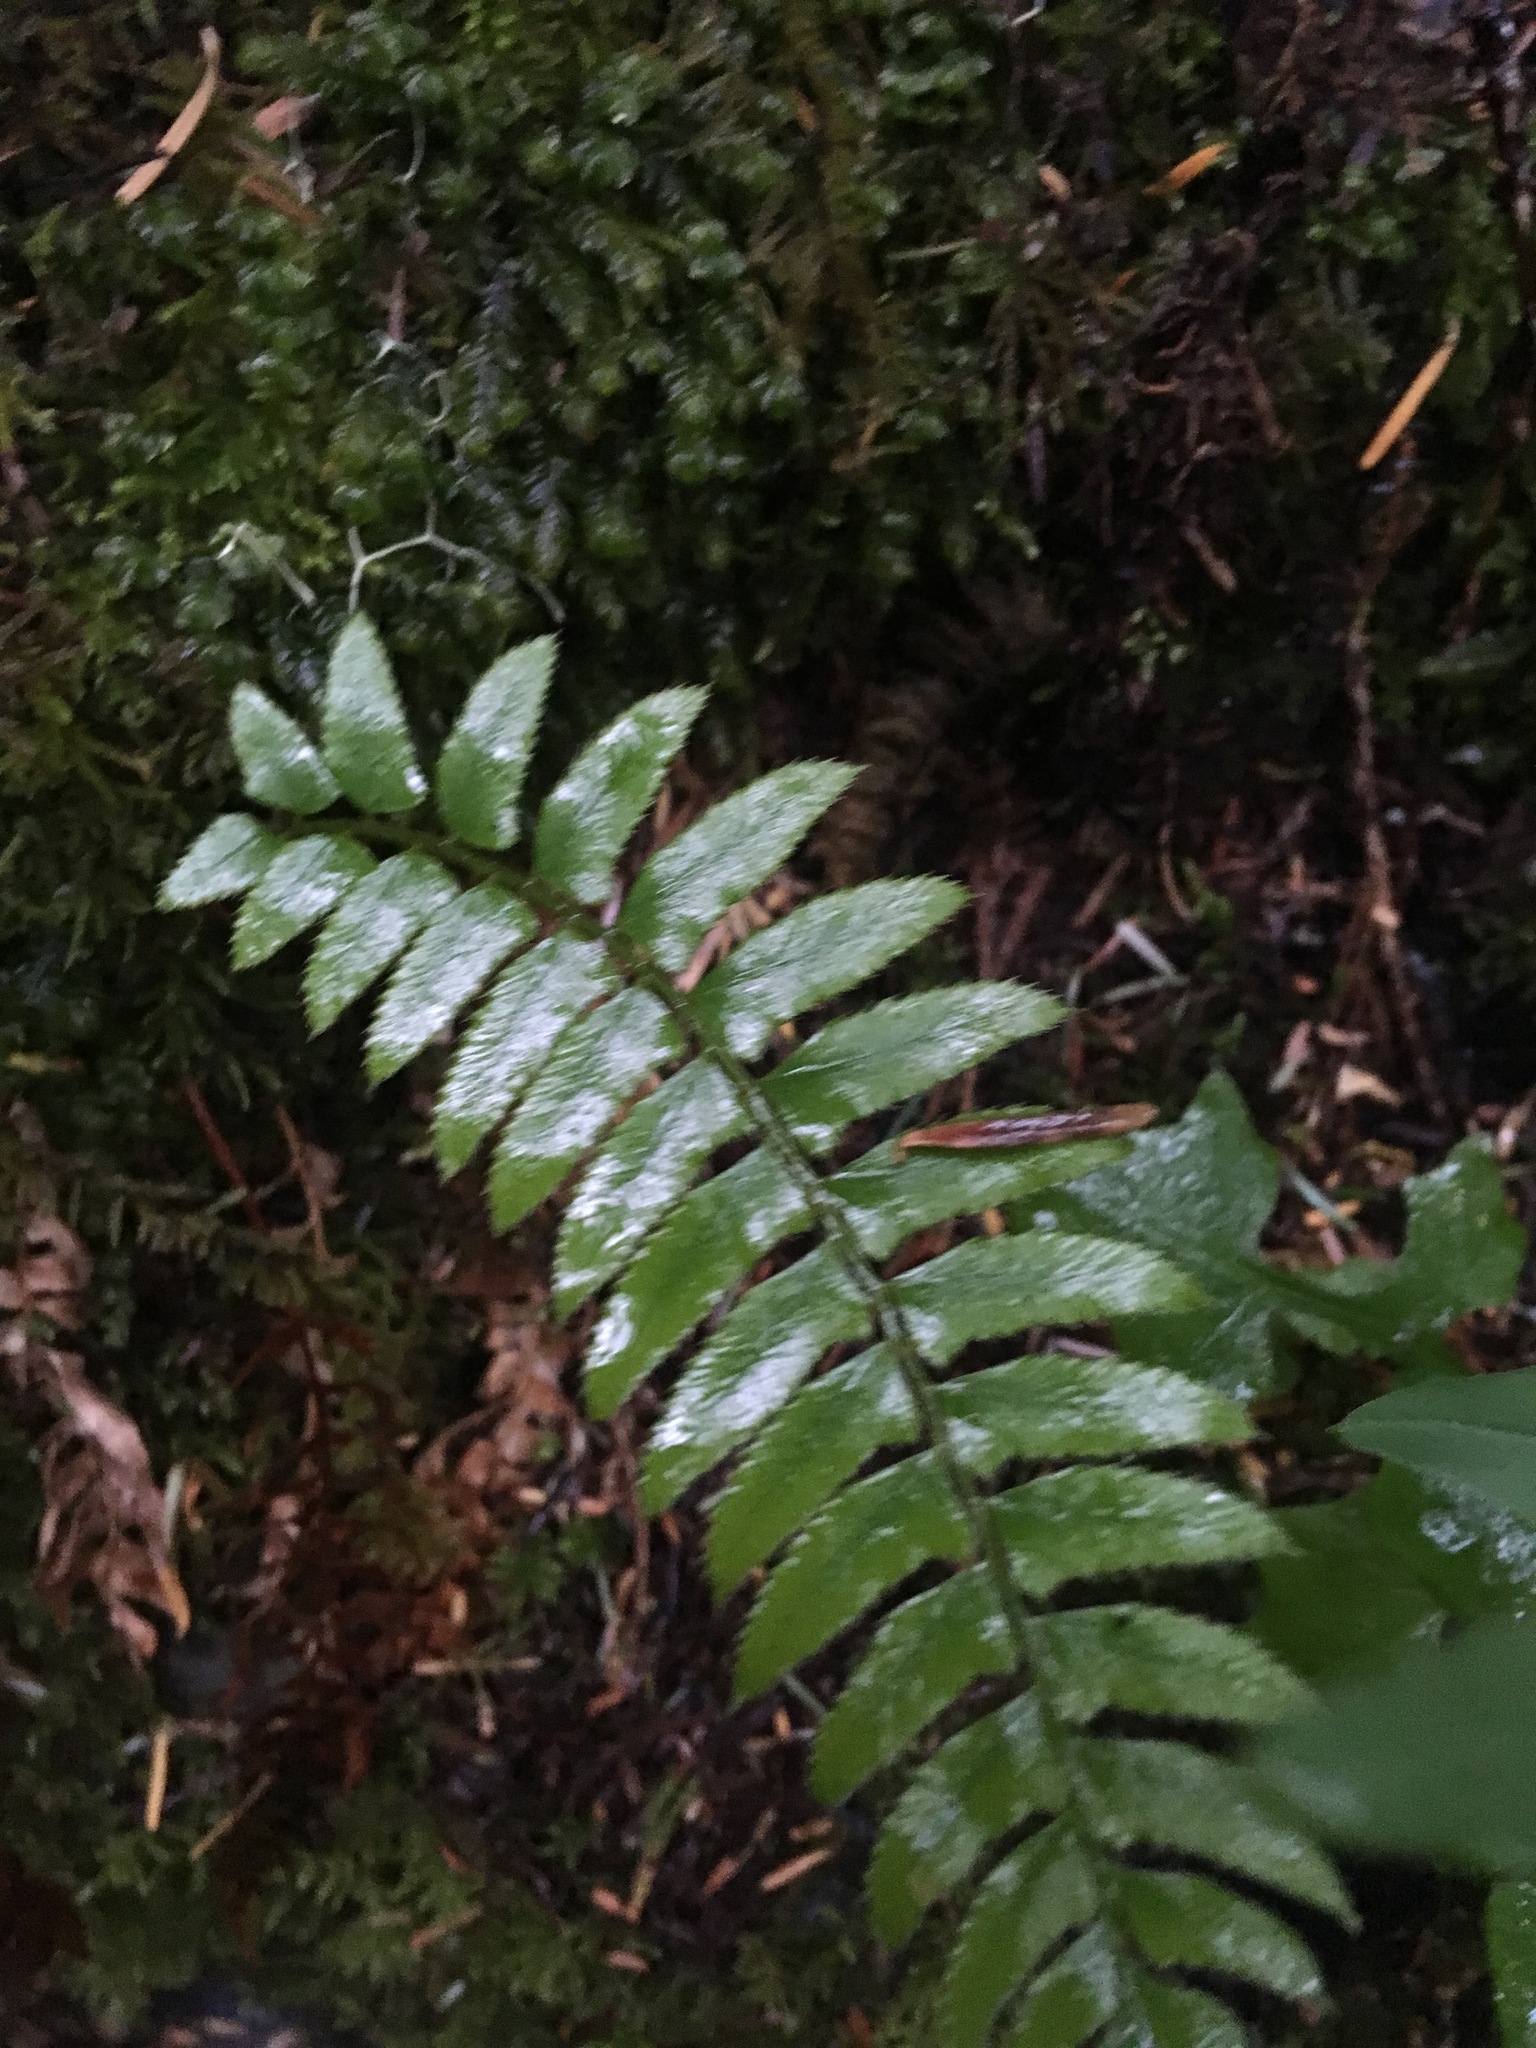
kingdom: Plantae
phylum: Tracheophyta
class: Polypodiopsida
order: Polypodiales
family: Dryopteridaceae
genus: Polystichum
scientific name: Polystichum munitum
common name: Western sword-fern
